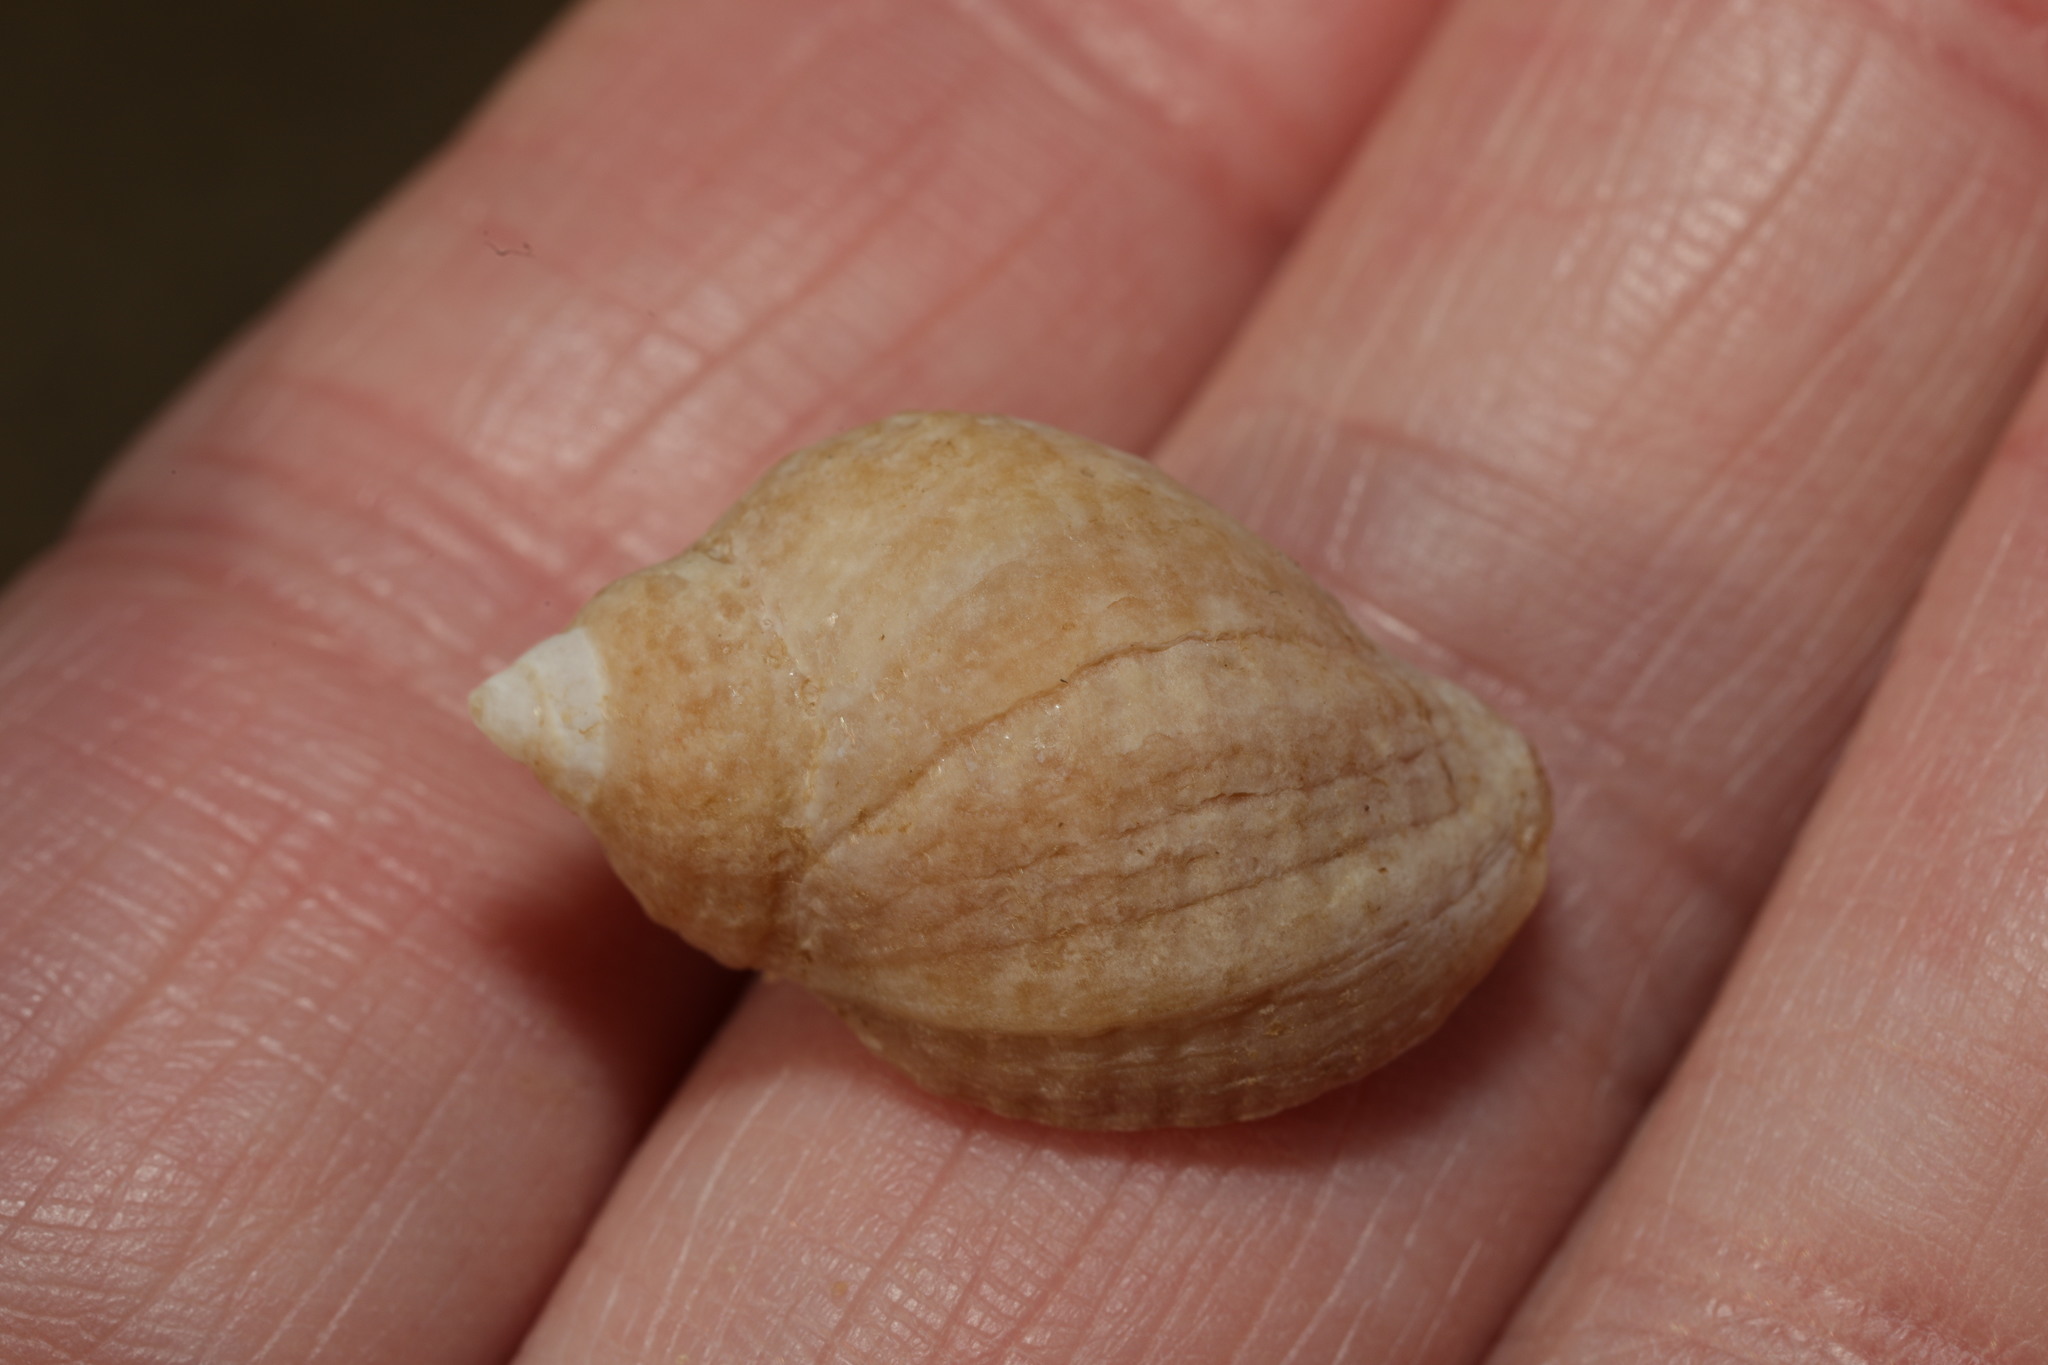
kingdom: Animalia
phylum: Mollusca
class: Gastropoda
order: Neogastropoda
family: Muricidae
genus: Nucella
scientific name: Nucella lapillus
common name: Dog whelk
